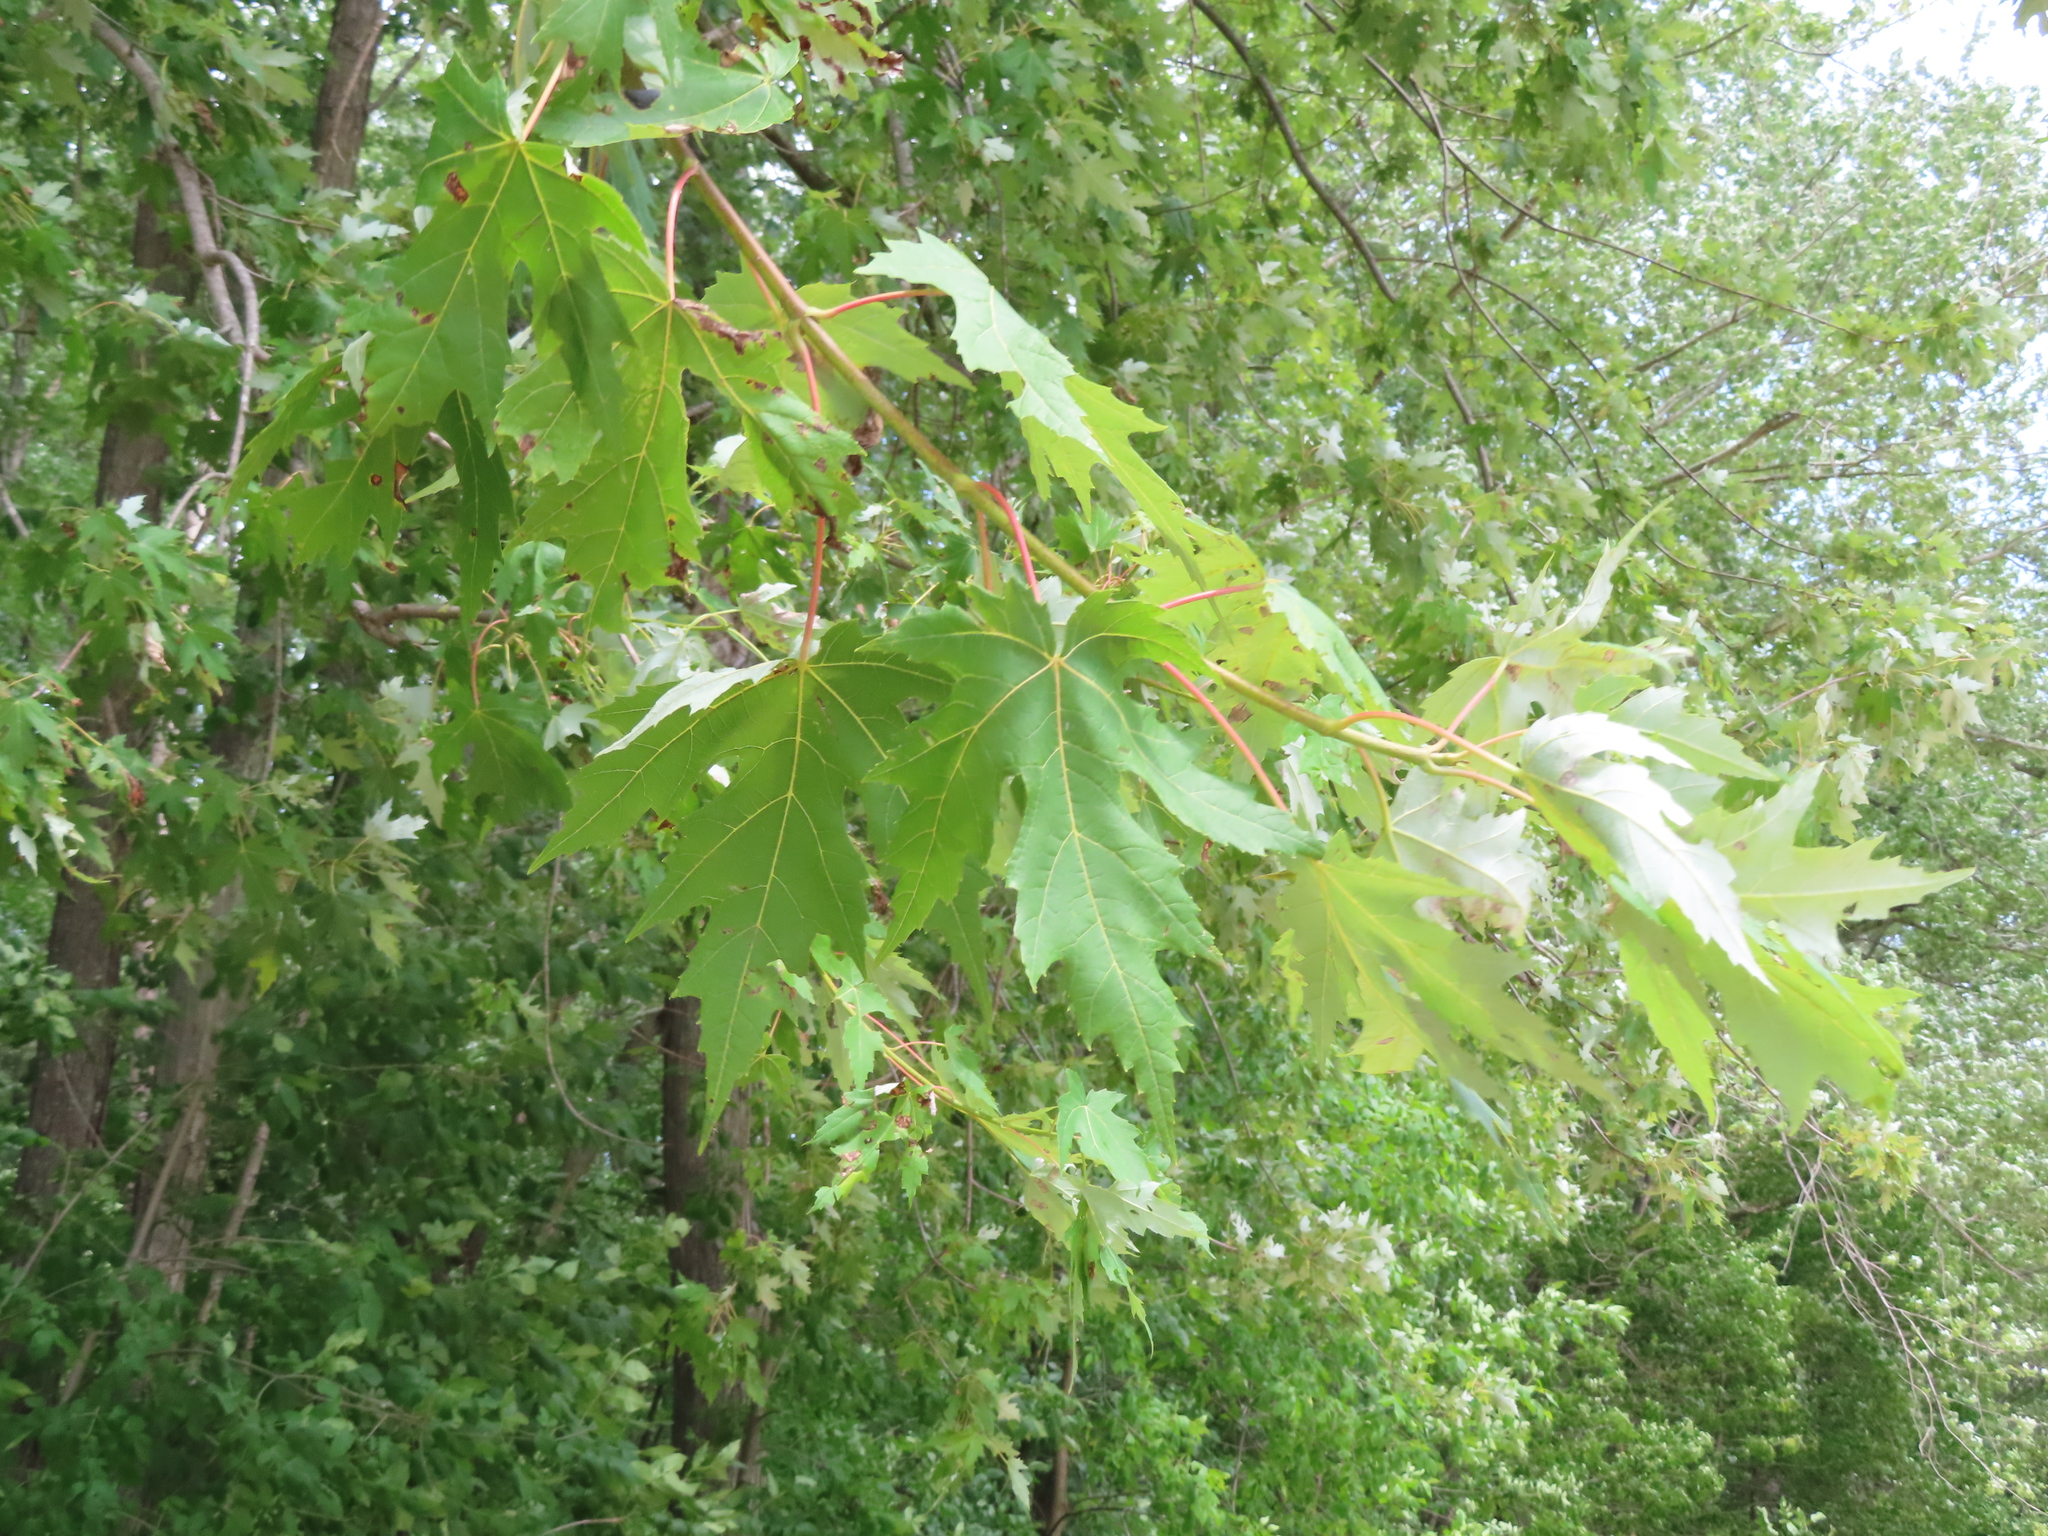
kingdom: Plantae
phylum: Tracheophyta
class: Magnoliopsida
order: Sapindales
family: Sapindaceae
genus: Acer
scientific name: Acer saccharinum
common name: Silver maple
